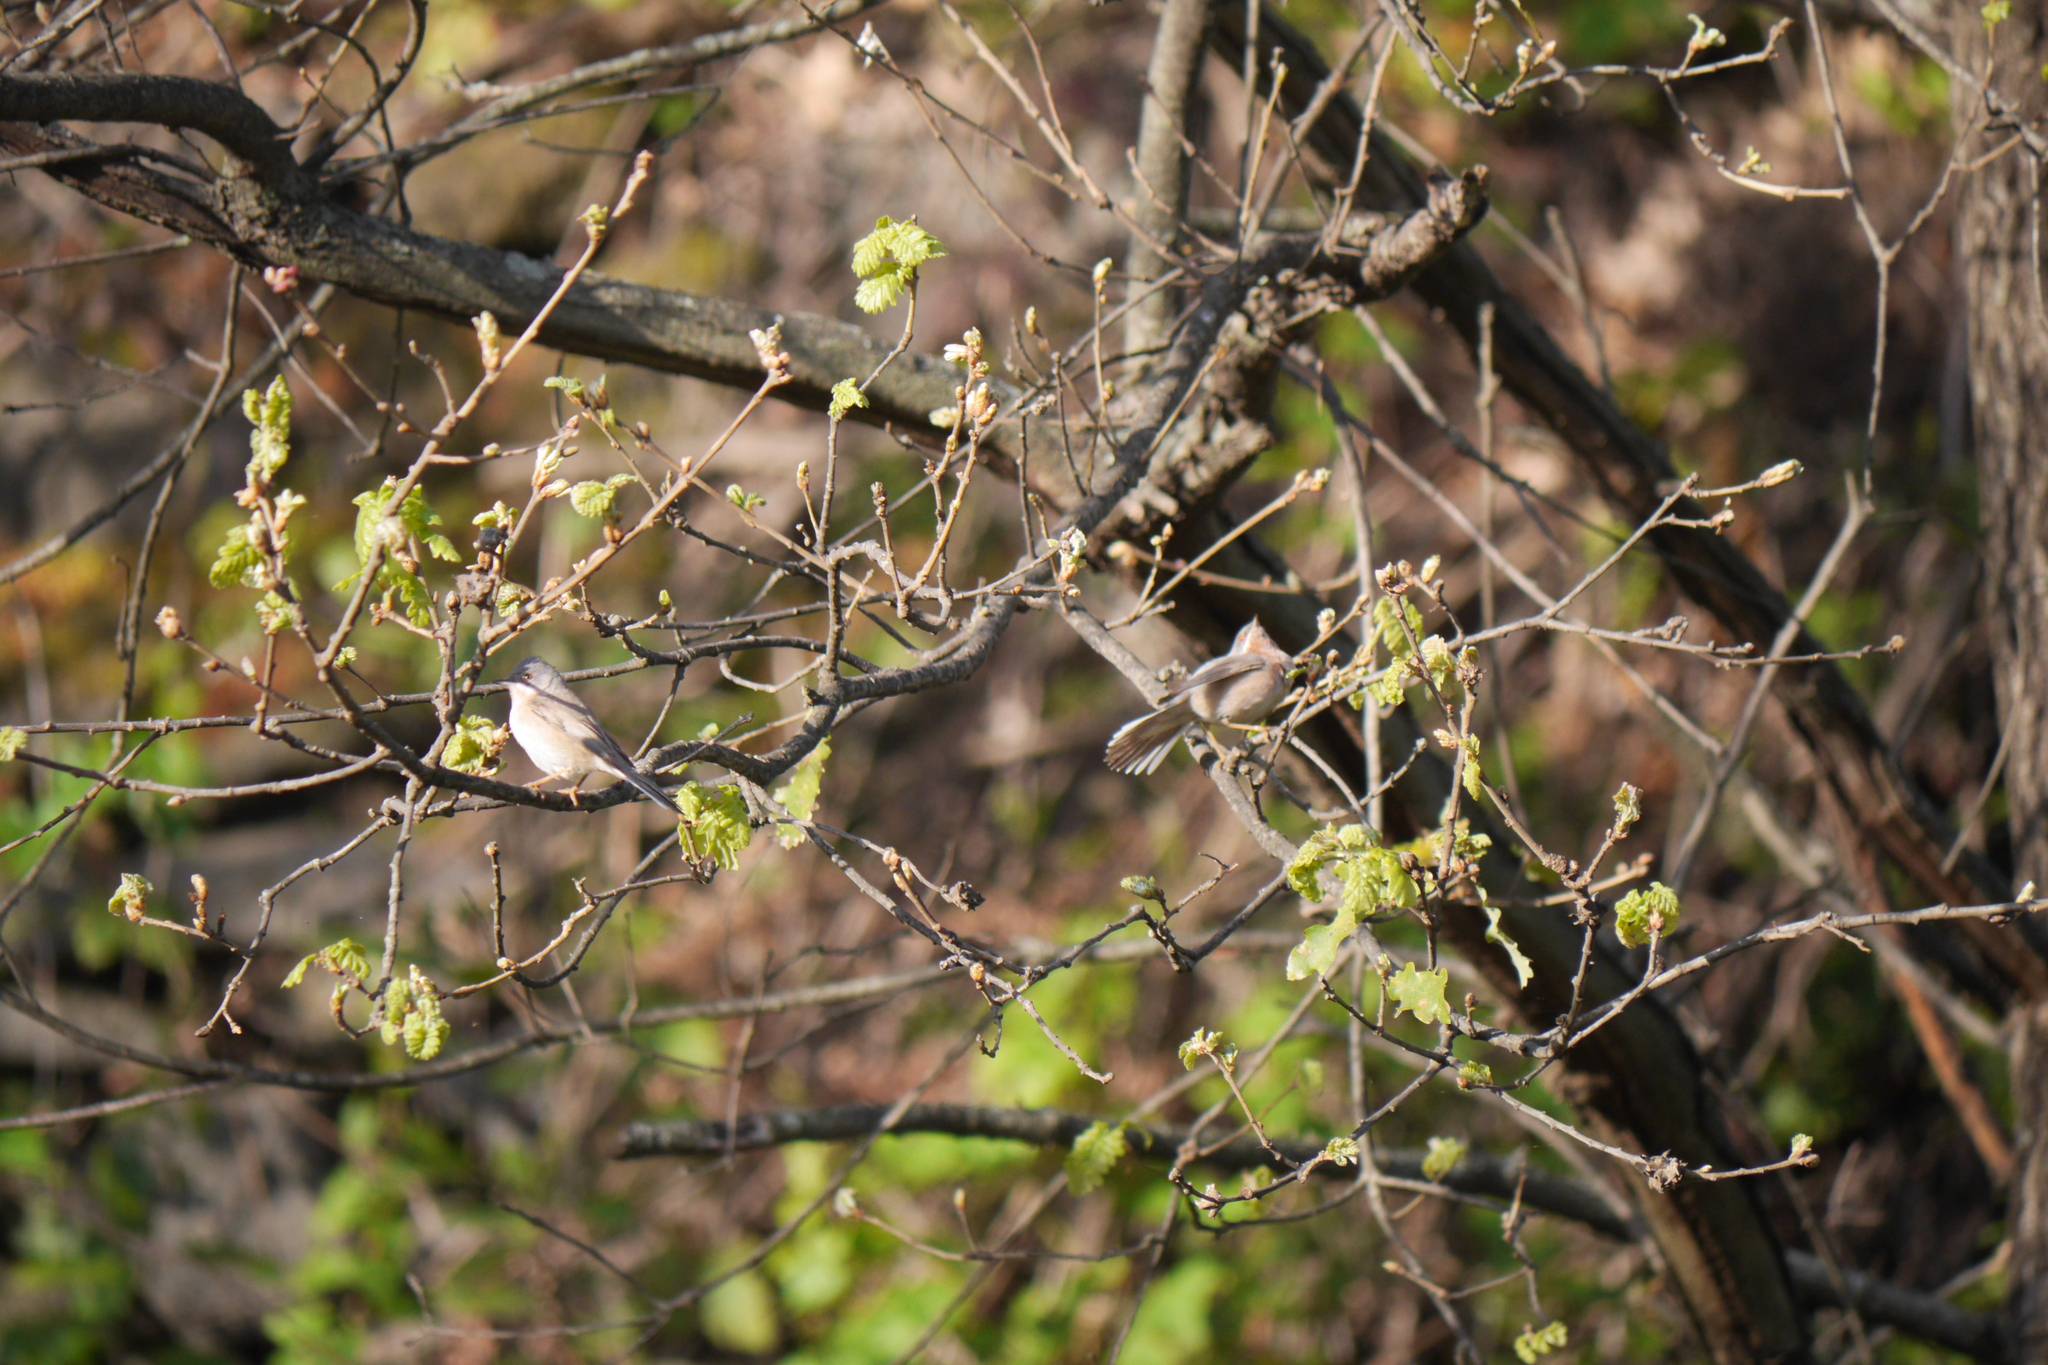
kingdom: Animalia
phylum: Chordata
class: Aves
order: Passeriformes
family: Sylviidae
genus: Curruca
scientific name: Curruca cantillans
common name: Subalpine warbler
